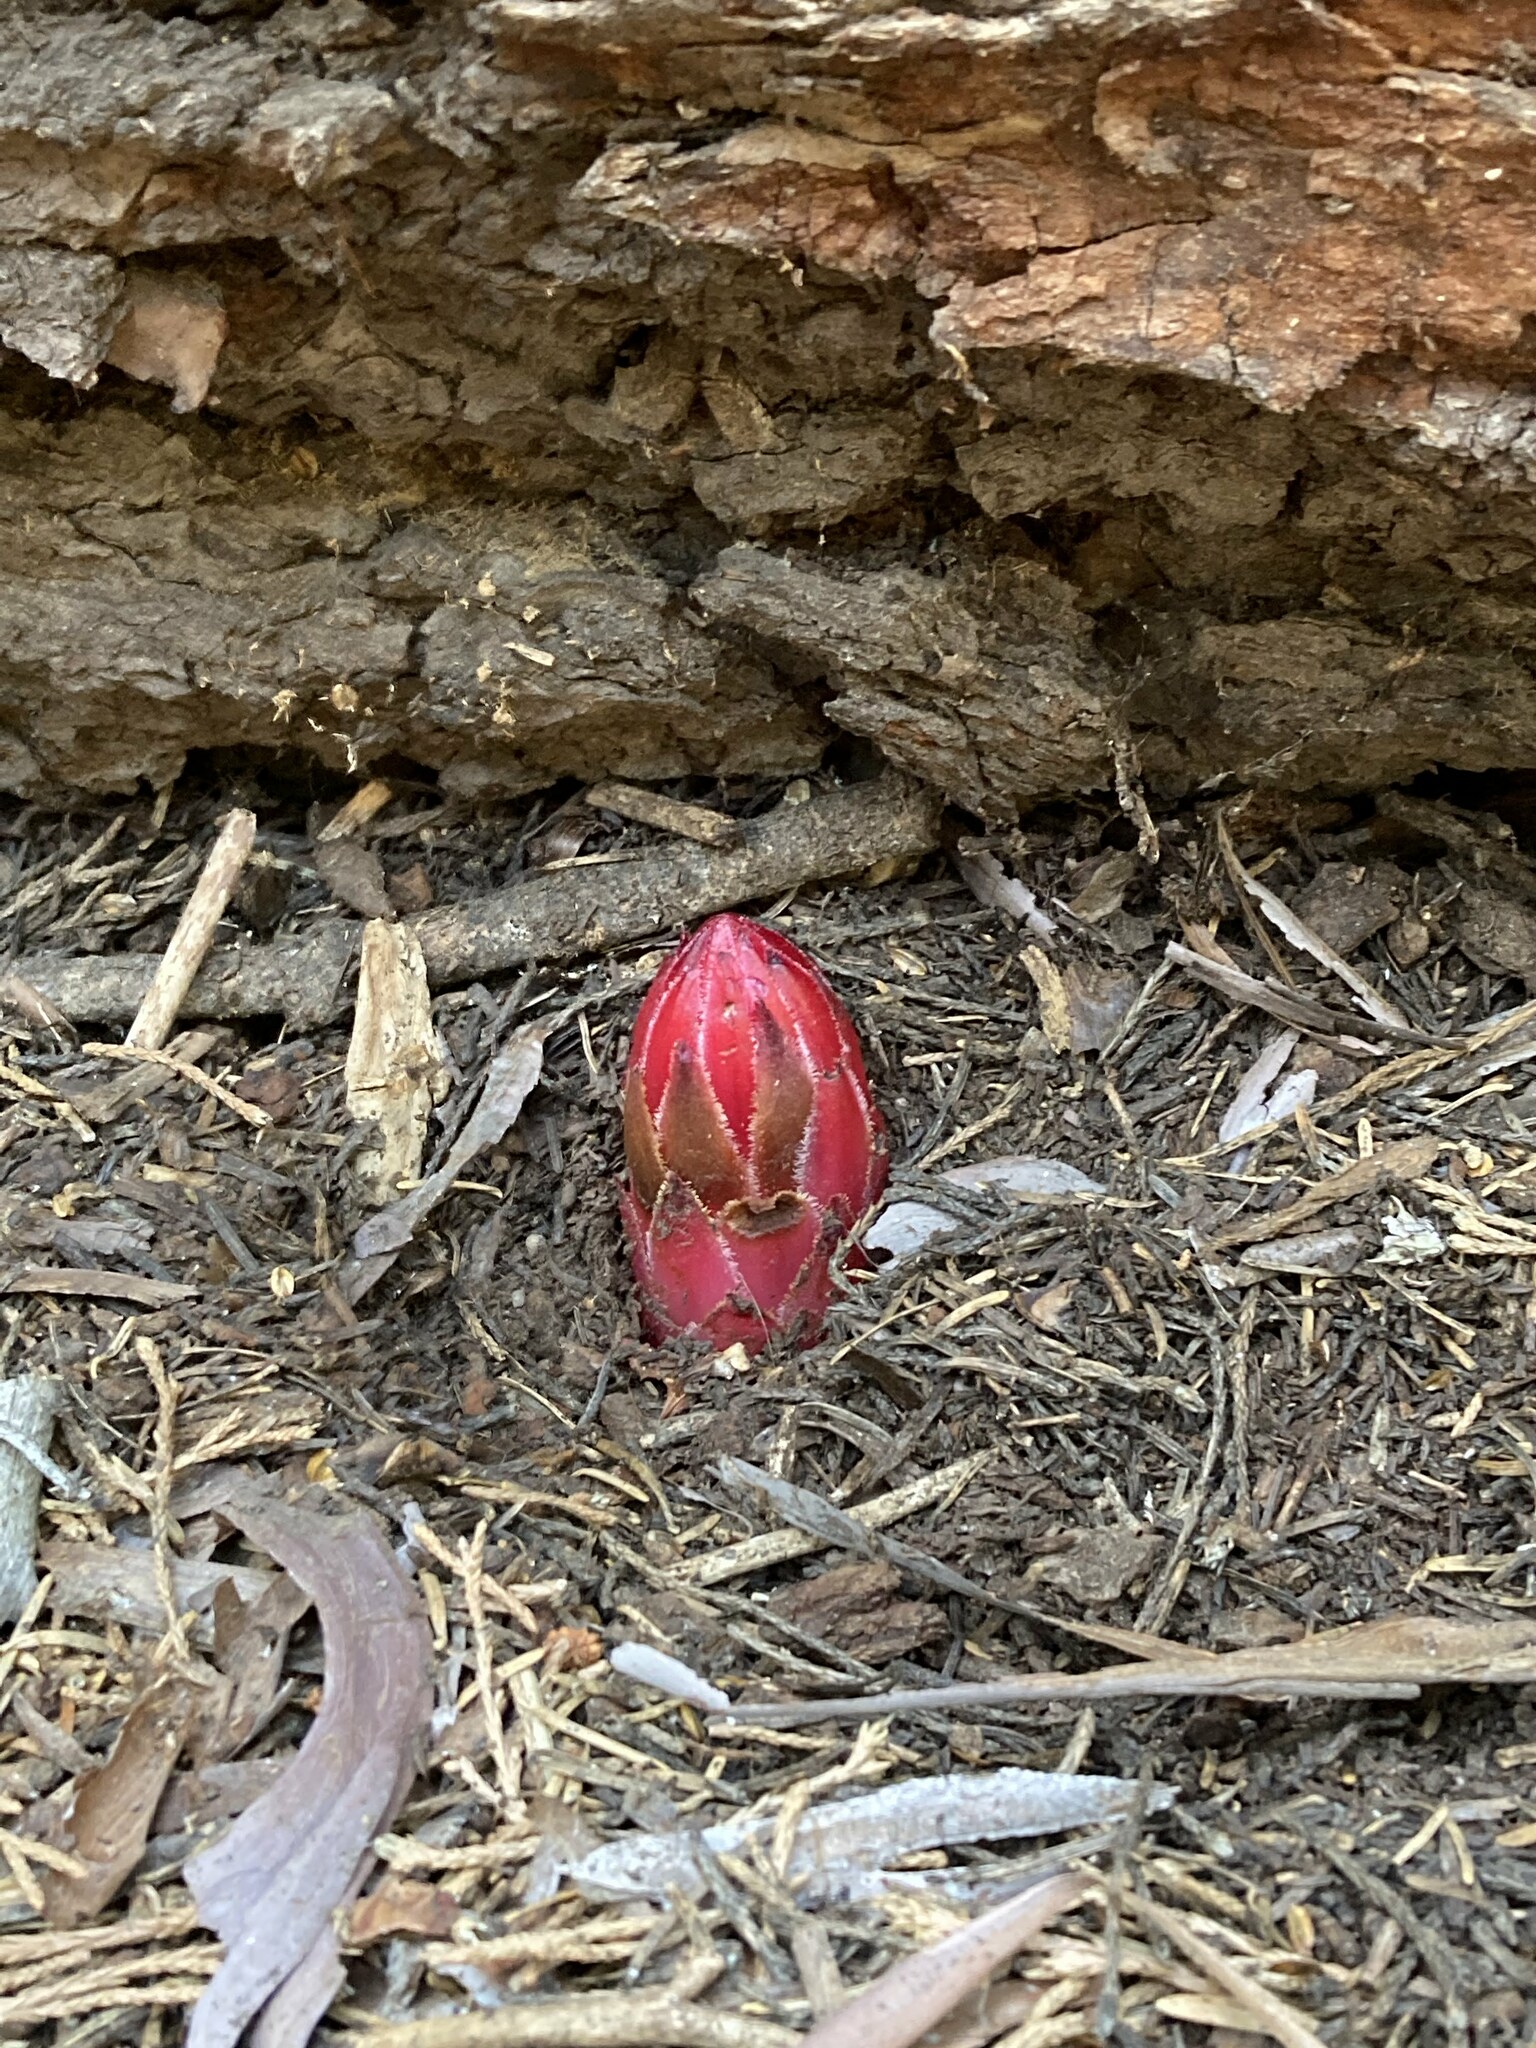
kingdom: Plantae
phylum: Tracheophyta
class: Magnoliopsida
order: Ericales
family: Ericaceae
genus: Sarcodes
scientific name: Sarcodes sanguinea
